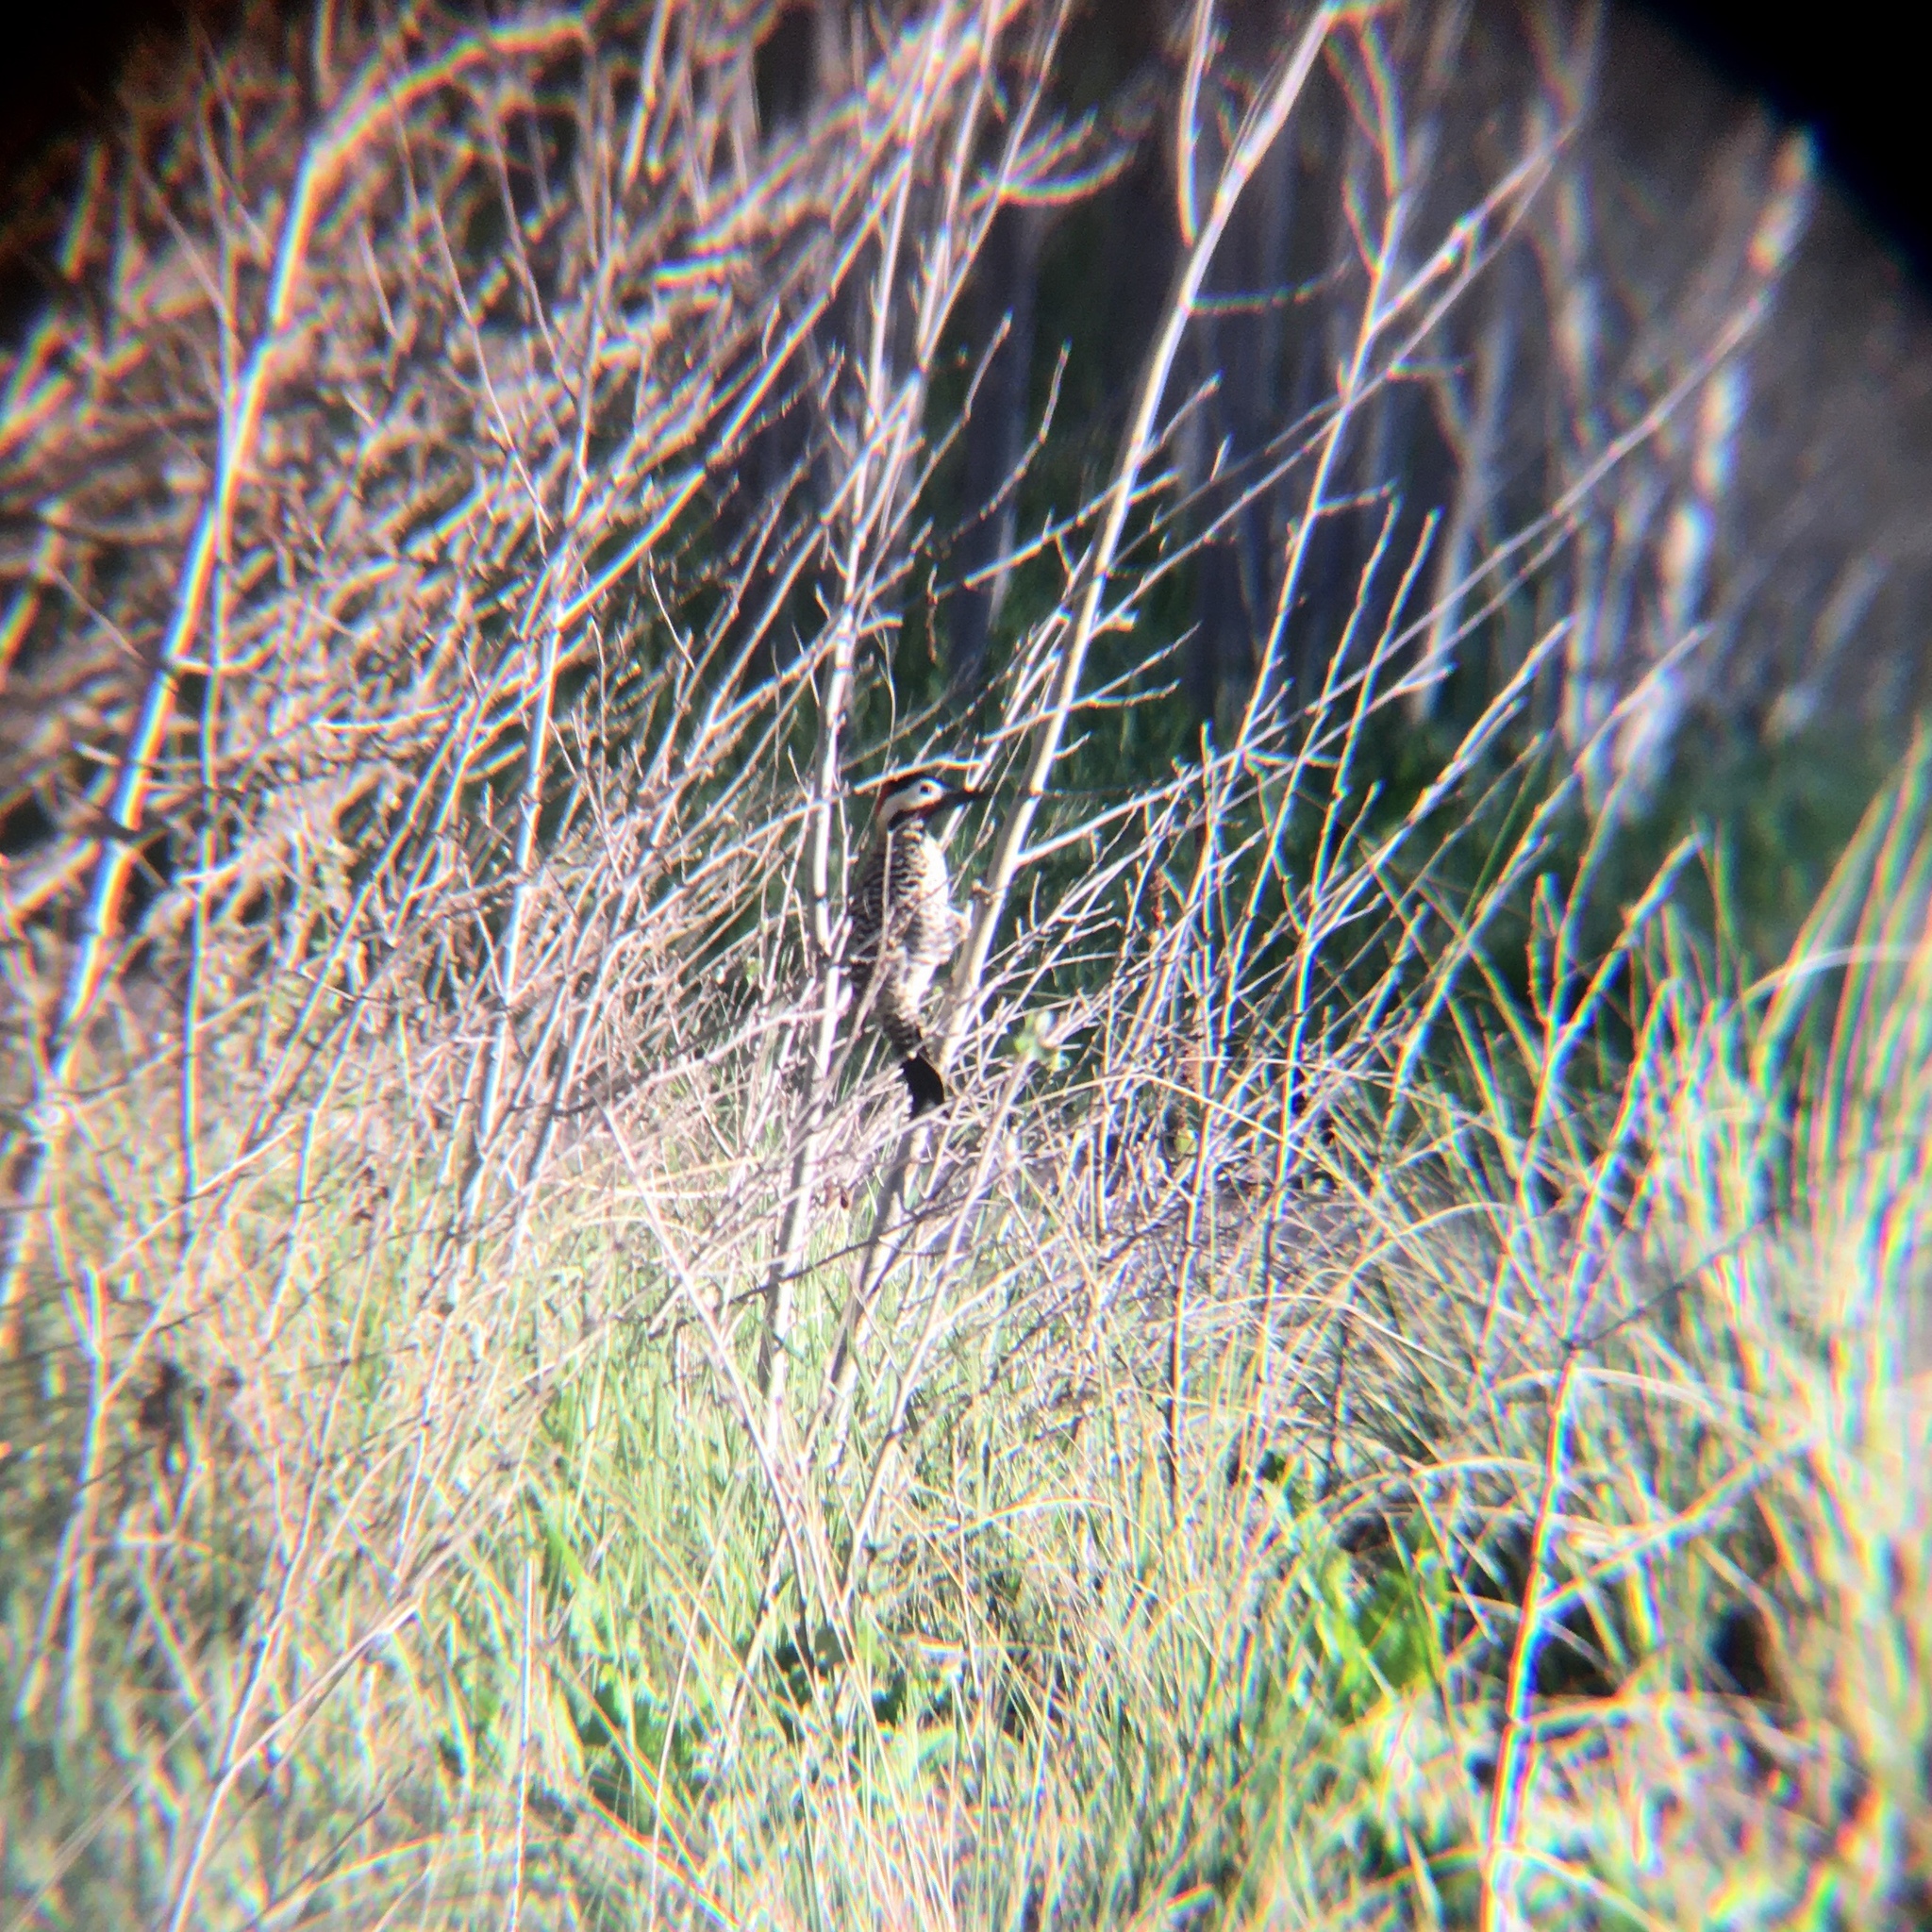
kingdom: Animalia
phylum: Chordata
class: Aves
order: Piciformes
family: Picidae
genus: Colaptes
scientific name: Colaptes melanochloros
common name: Green-barred woodpecker
